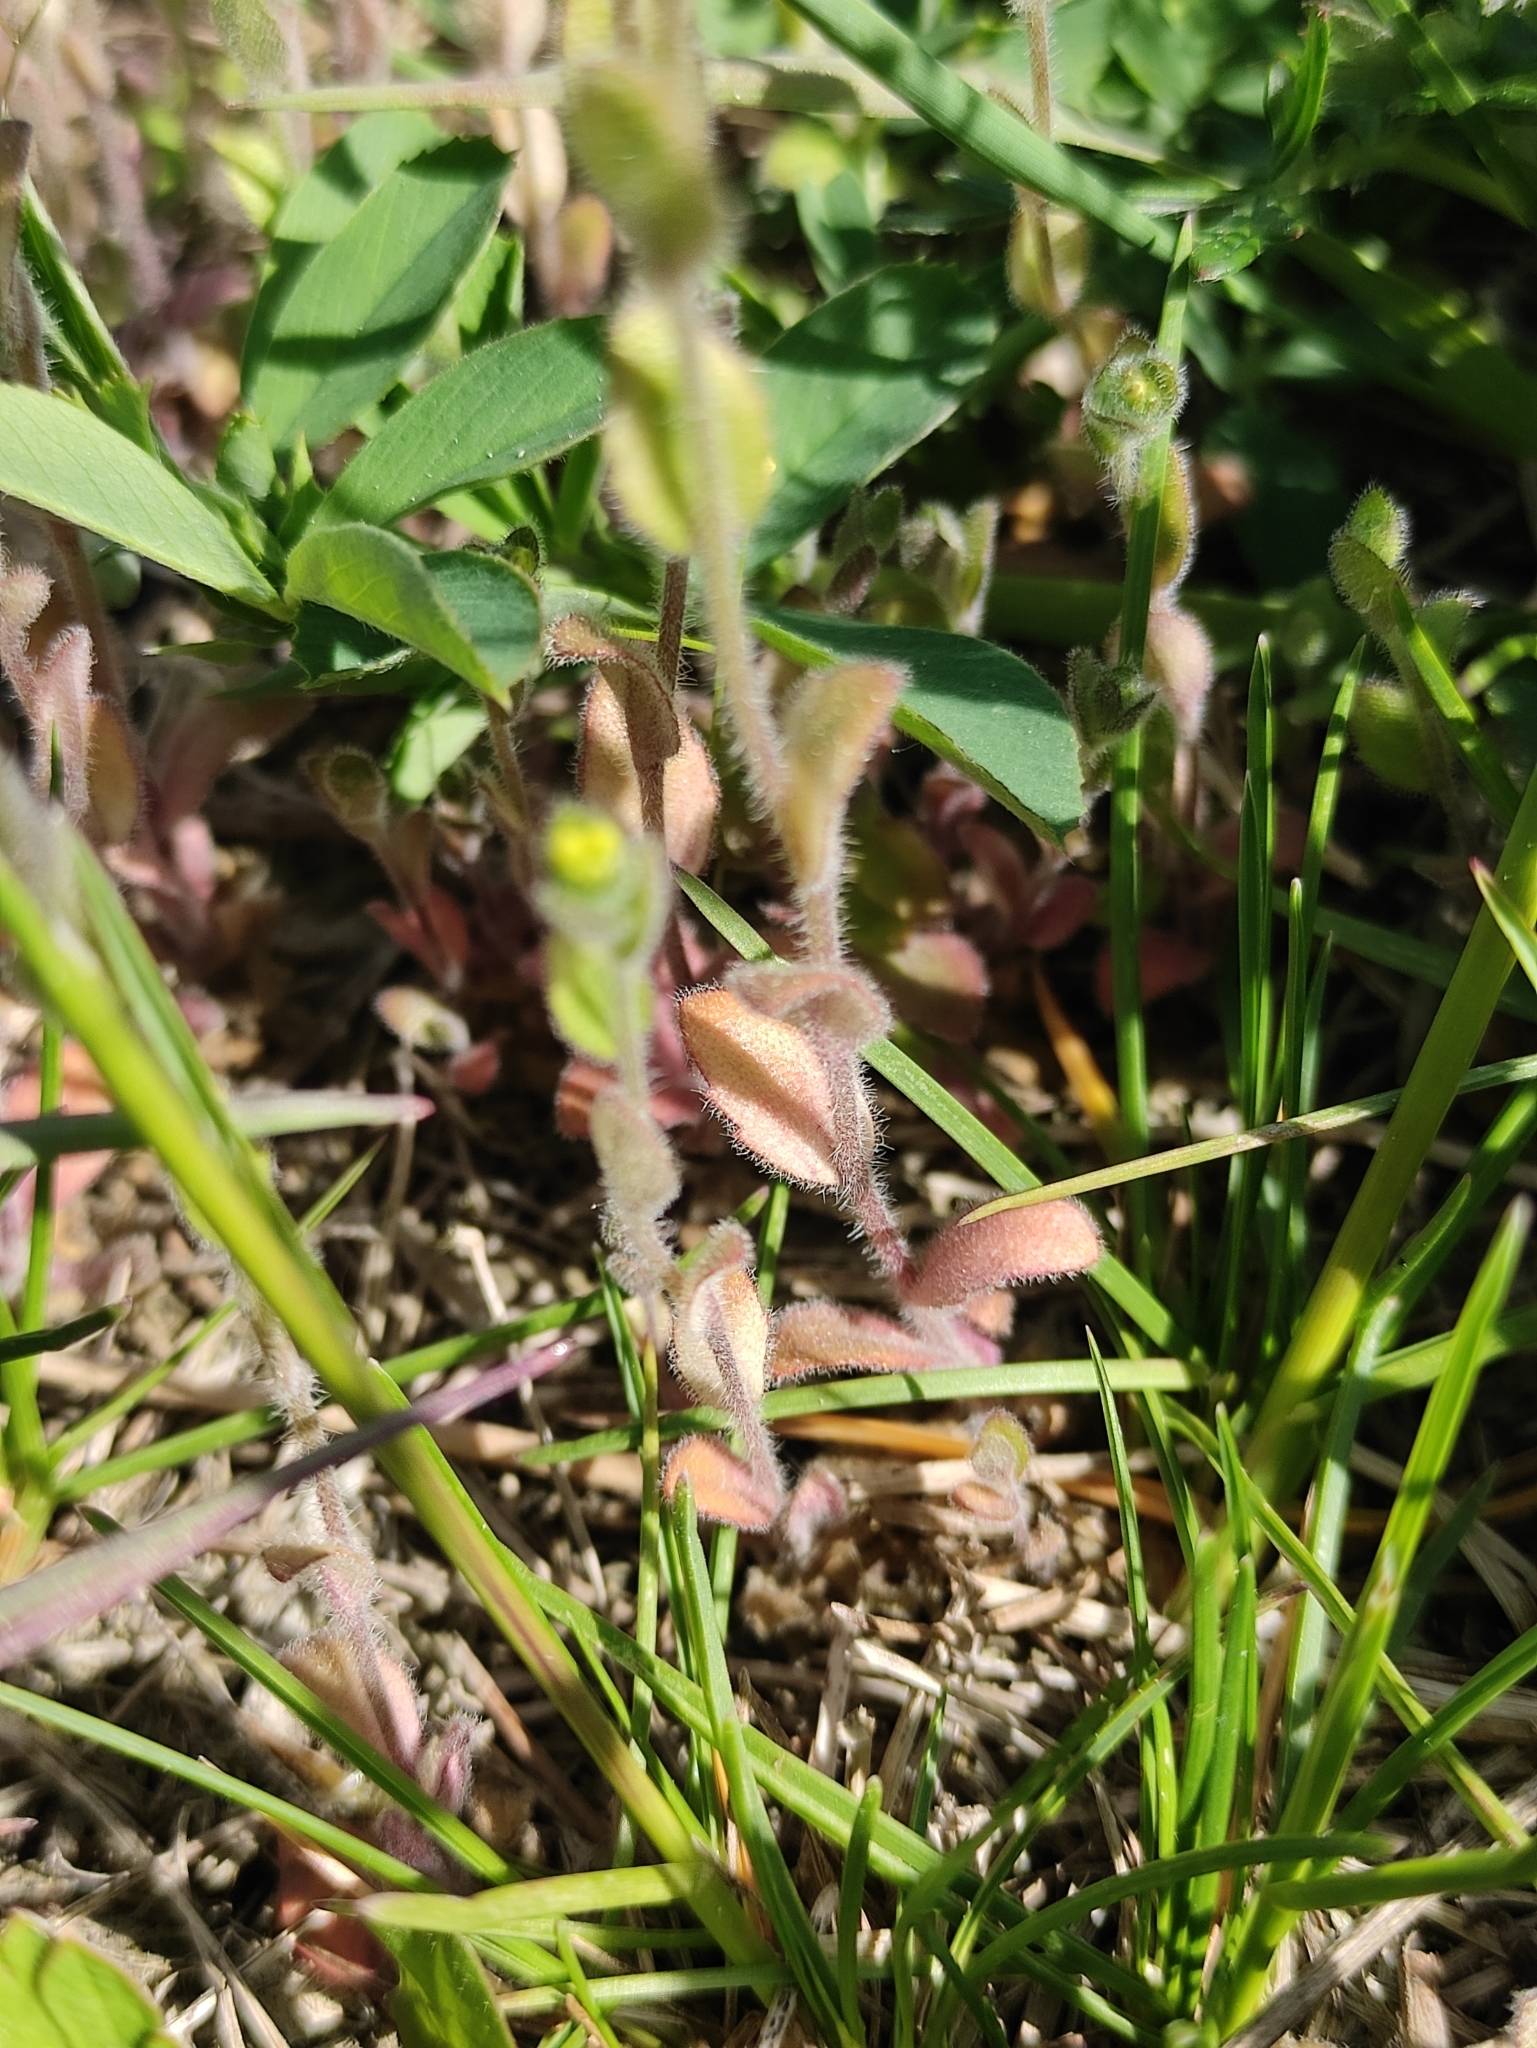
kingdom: Plantae
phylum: Tracheophyta
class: Magnoliopsida
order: Brassicales
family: Brassicaceae
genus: Draba
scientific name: Draba nemorosa
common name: Wood whitlow-grass
